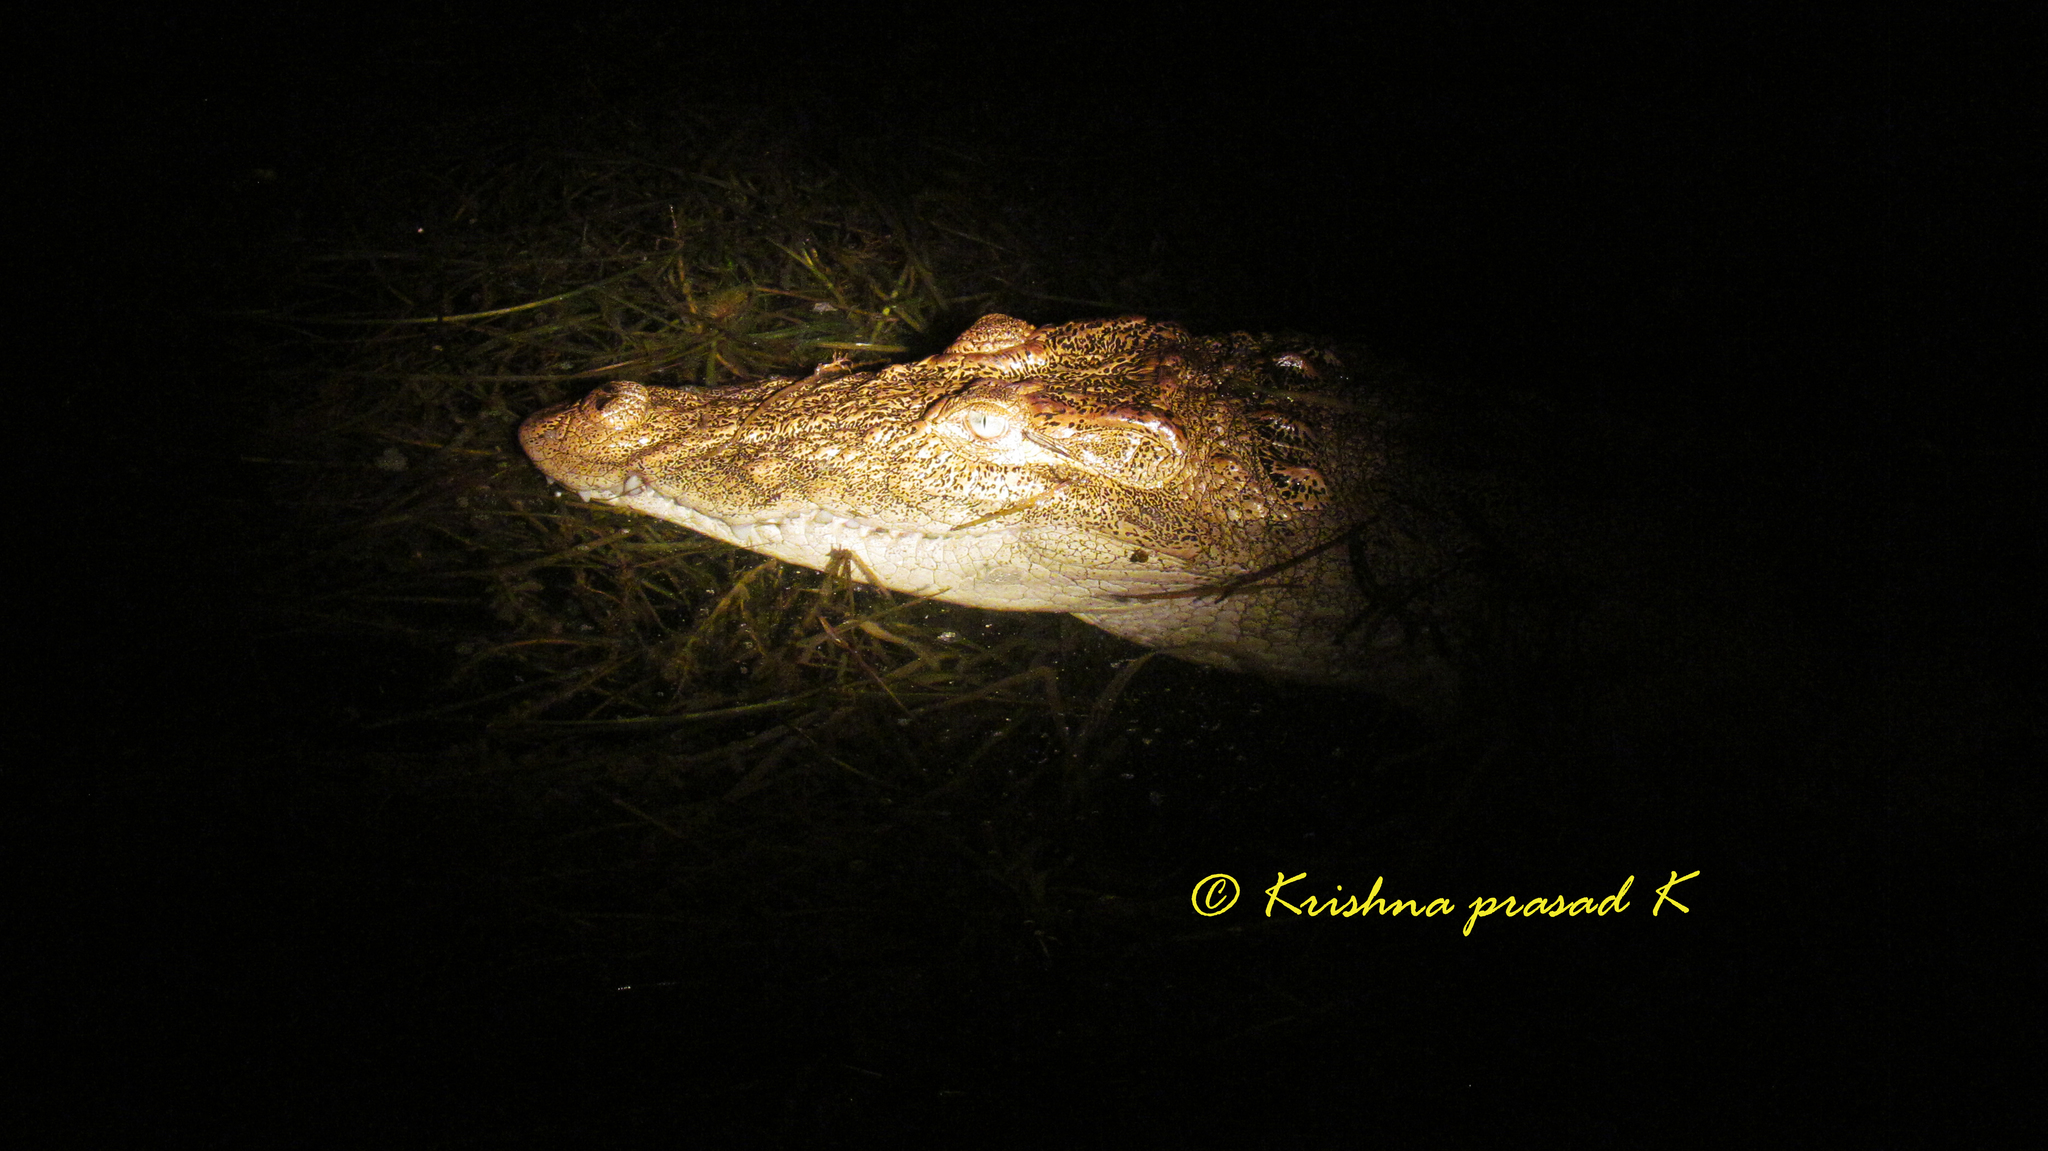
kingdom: Animalia
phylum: Chordata
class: Crocodylia
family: Crocodylidae
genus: Crocodylus
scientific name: Crocodylus palustris
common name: Mugger crocodile
